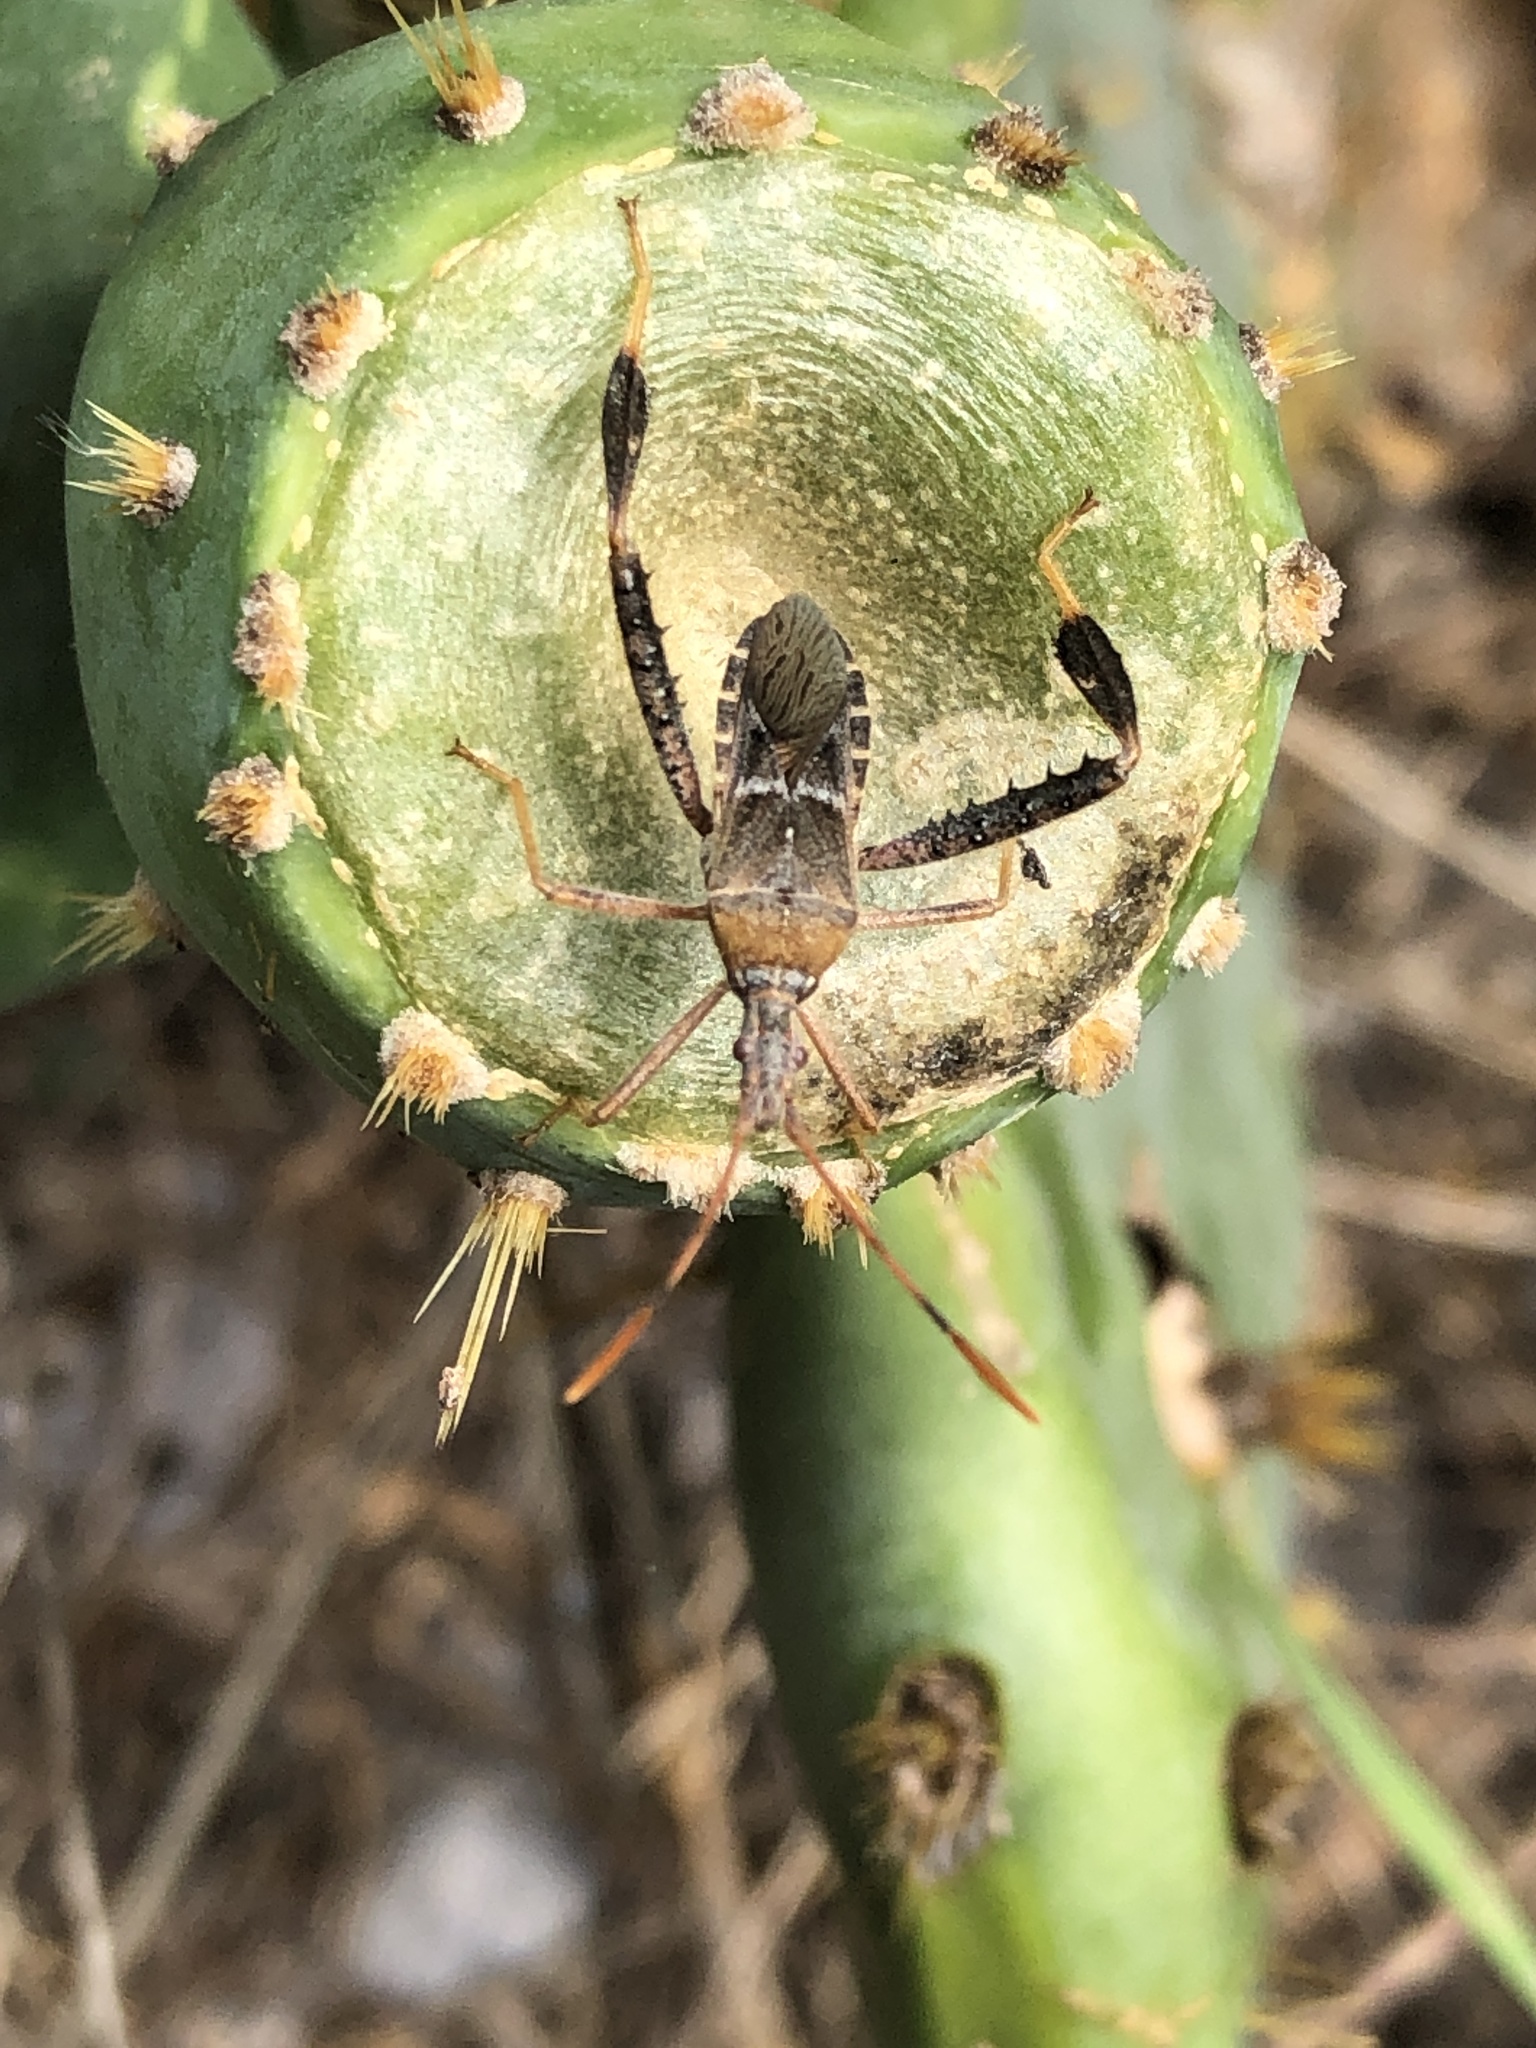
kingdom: Animalia
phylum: Arthropoda
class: Insecta
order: Hemiptera
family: Coreidae
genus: Narnia
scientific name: Narnia femorata
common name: Leaf-footed cactus bug
